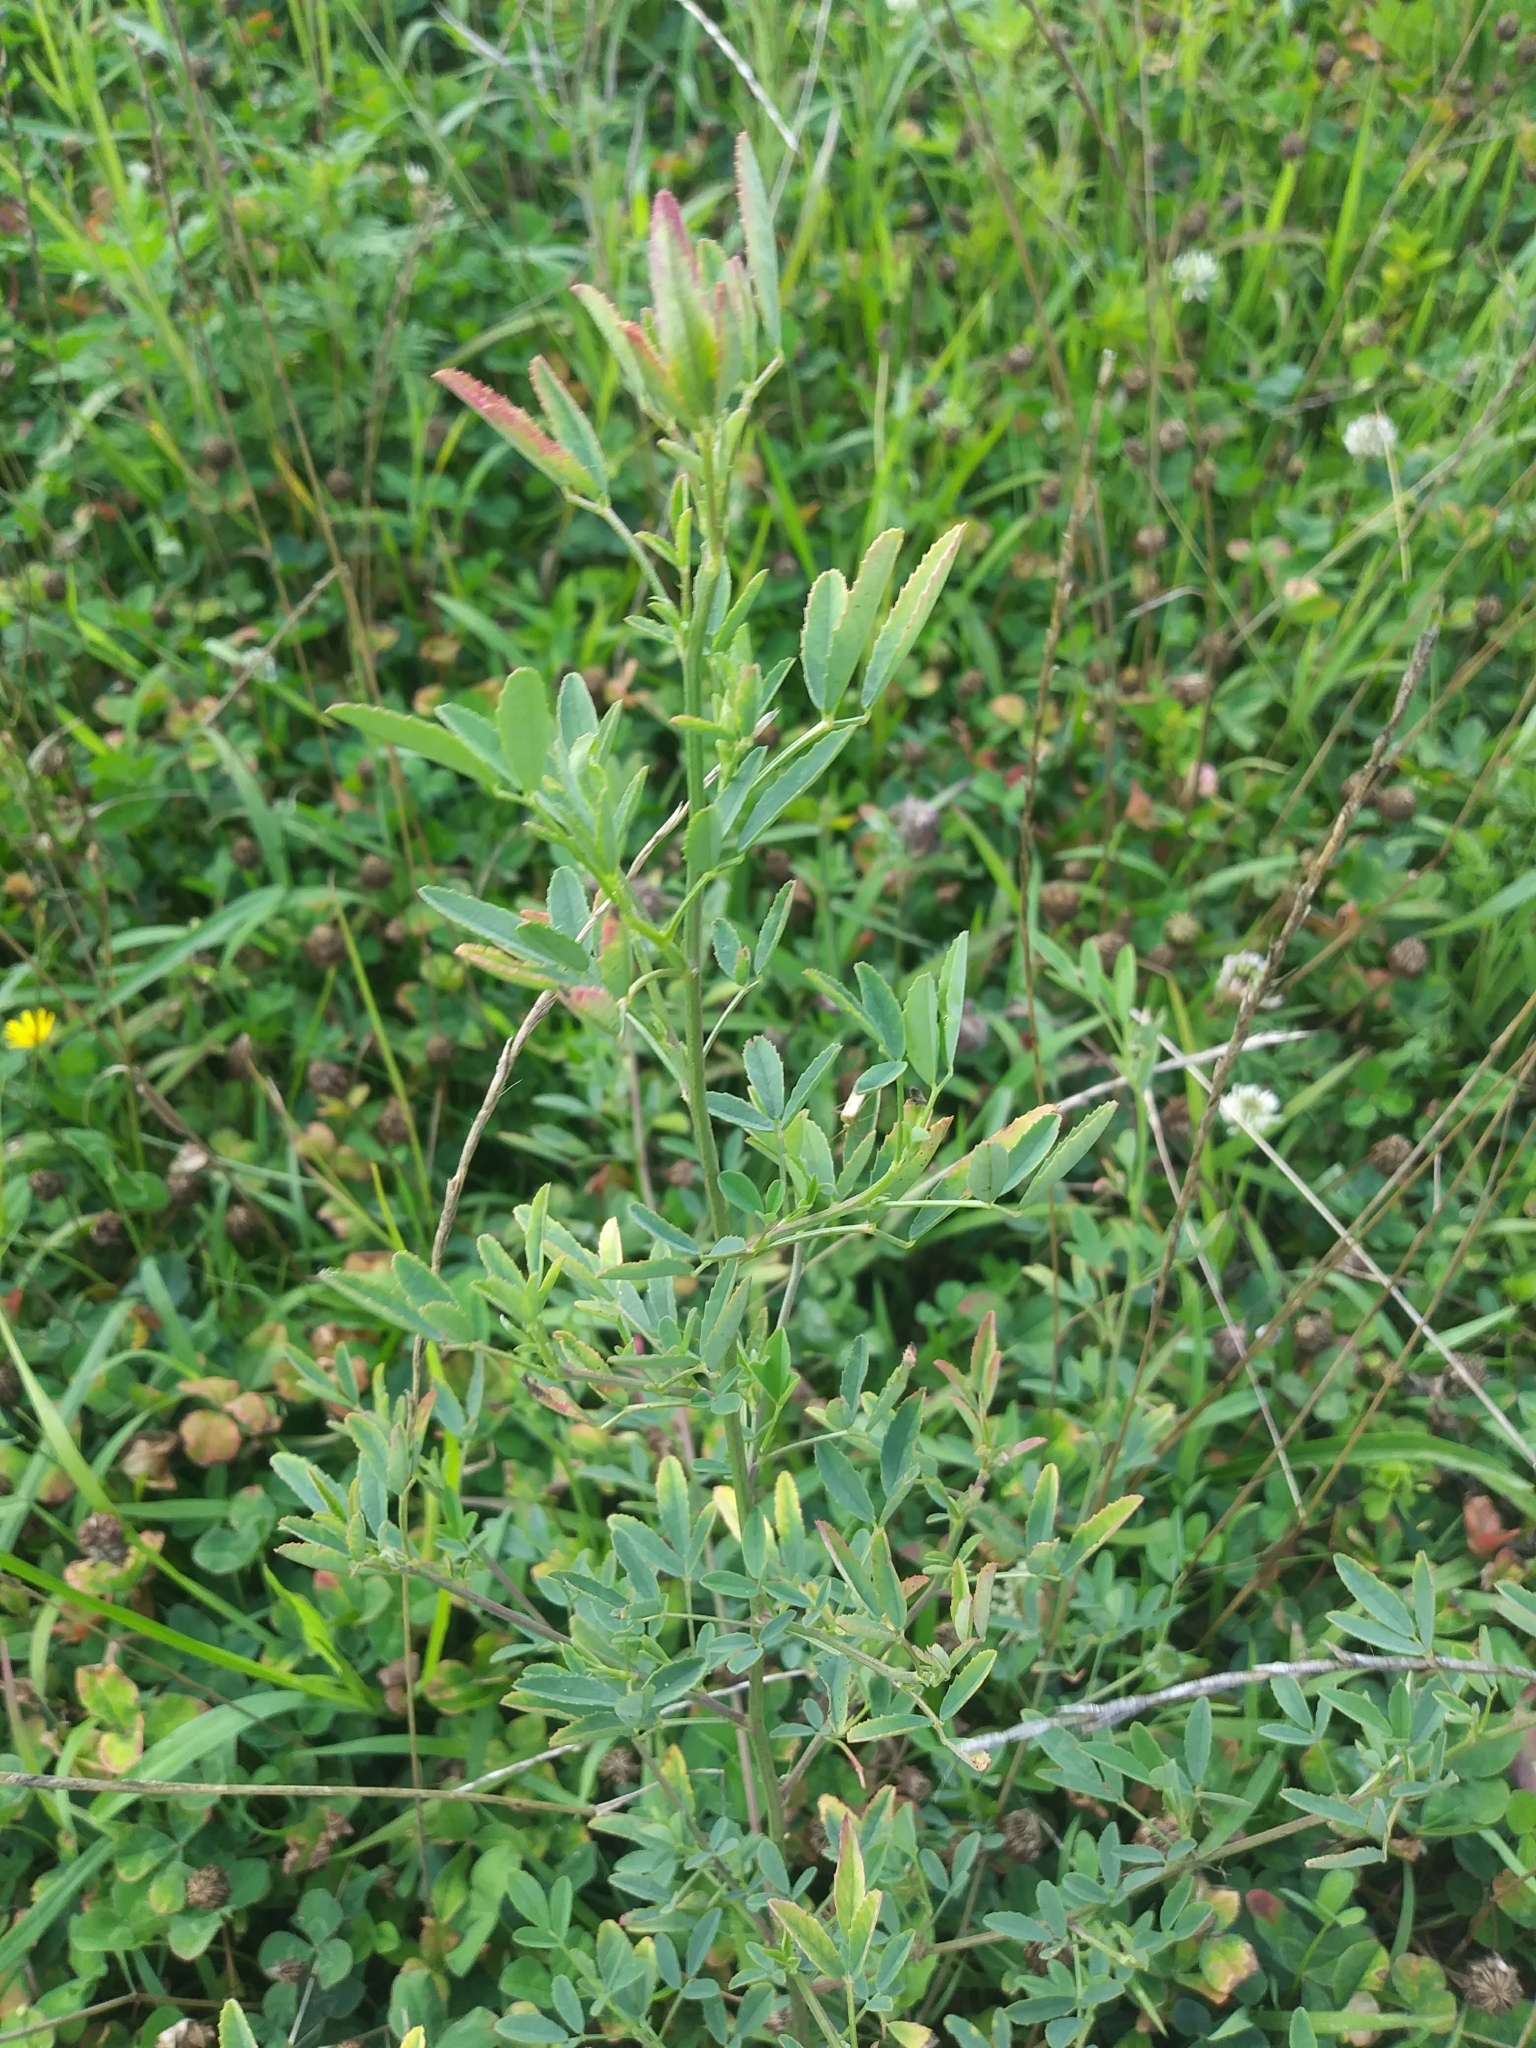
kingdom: Plantae
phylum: Tracheophyta
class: Magnoliopsida
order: Fabales
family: Fabaceae
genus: Melilotus
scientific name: Melilotus
